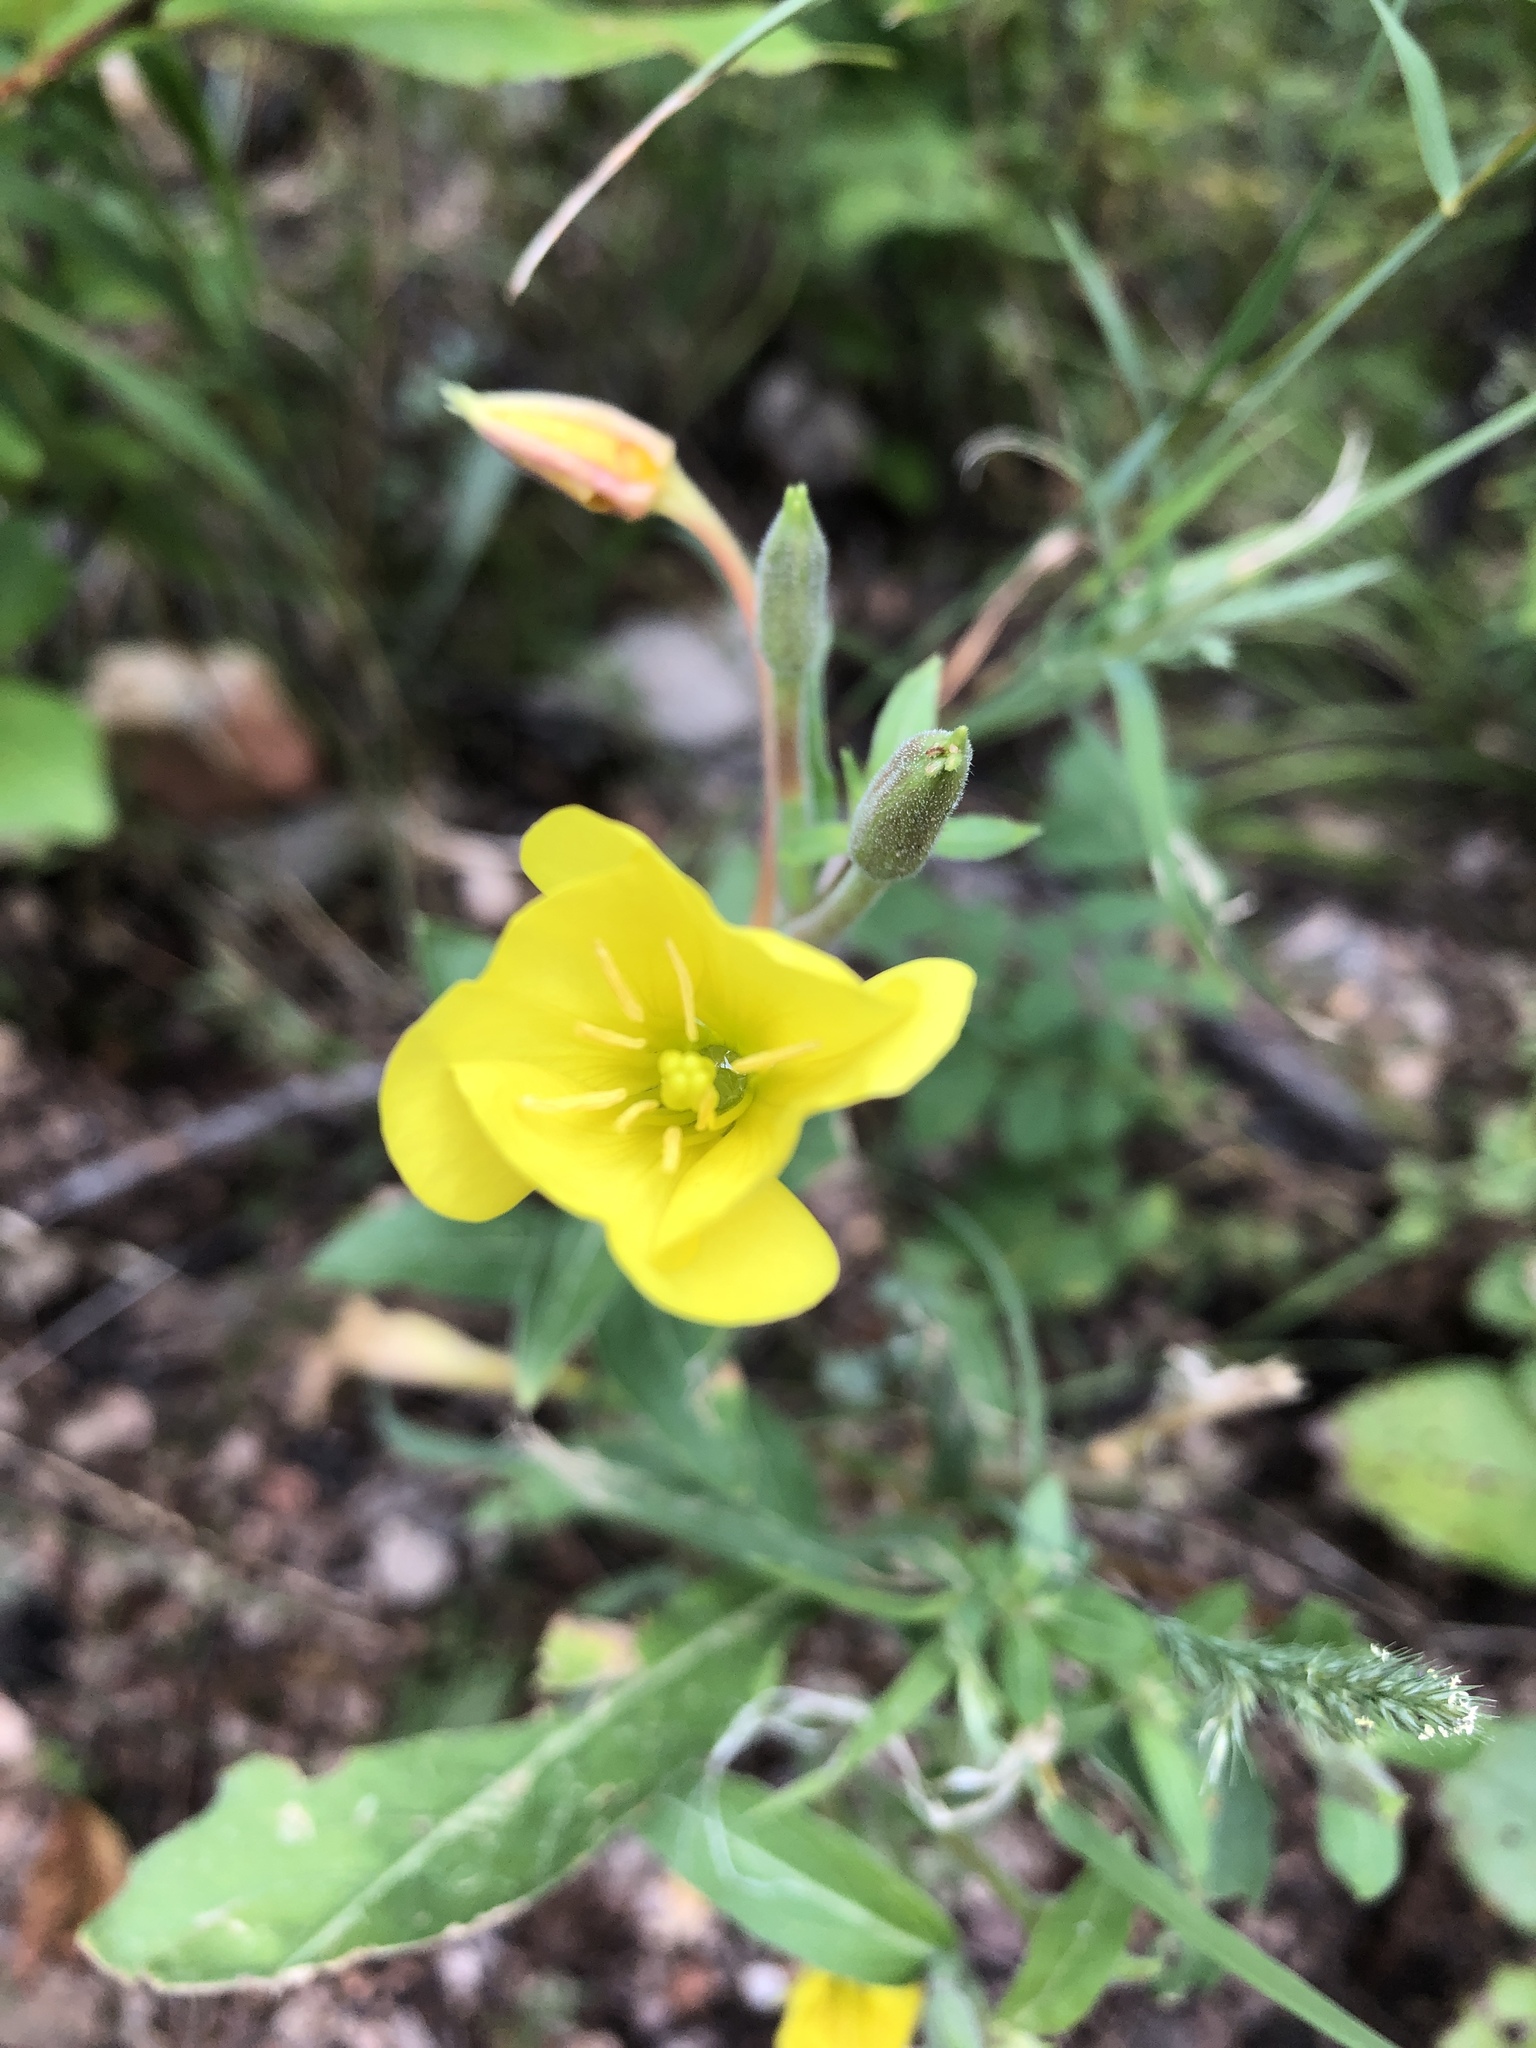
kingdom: Plantae
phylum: Tracheophyta
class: Magnoliopsida
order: Myrtales
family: Onagraceae
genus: Oenothera
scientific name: Oenothera biennis
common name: Common evening-primrose
